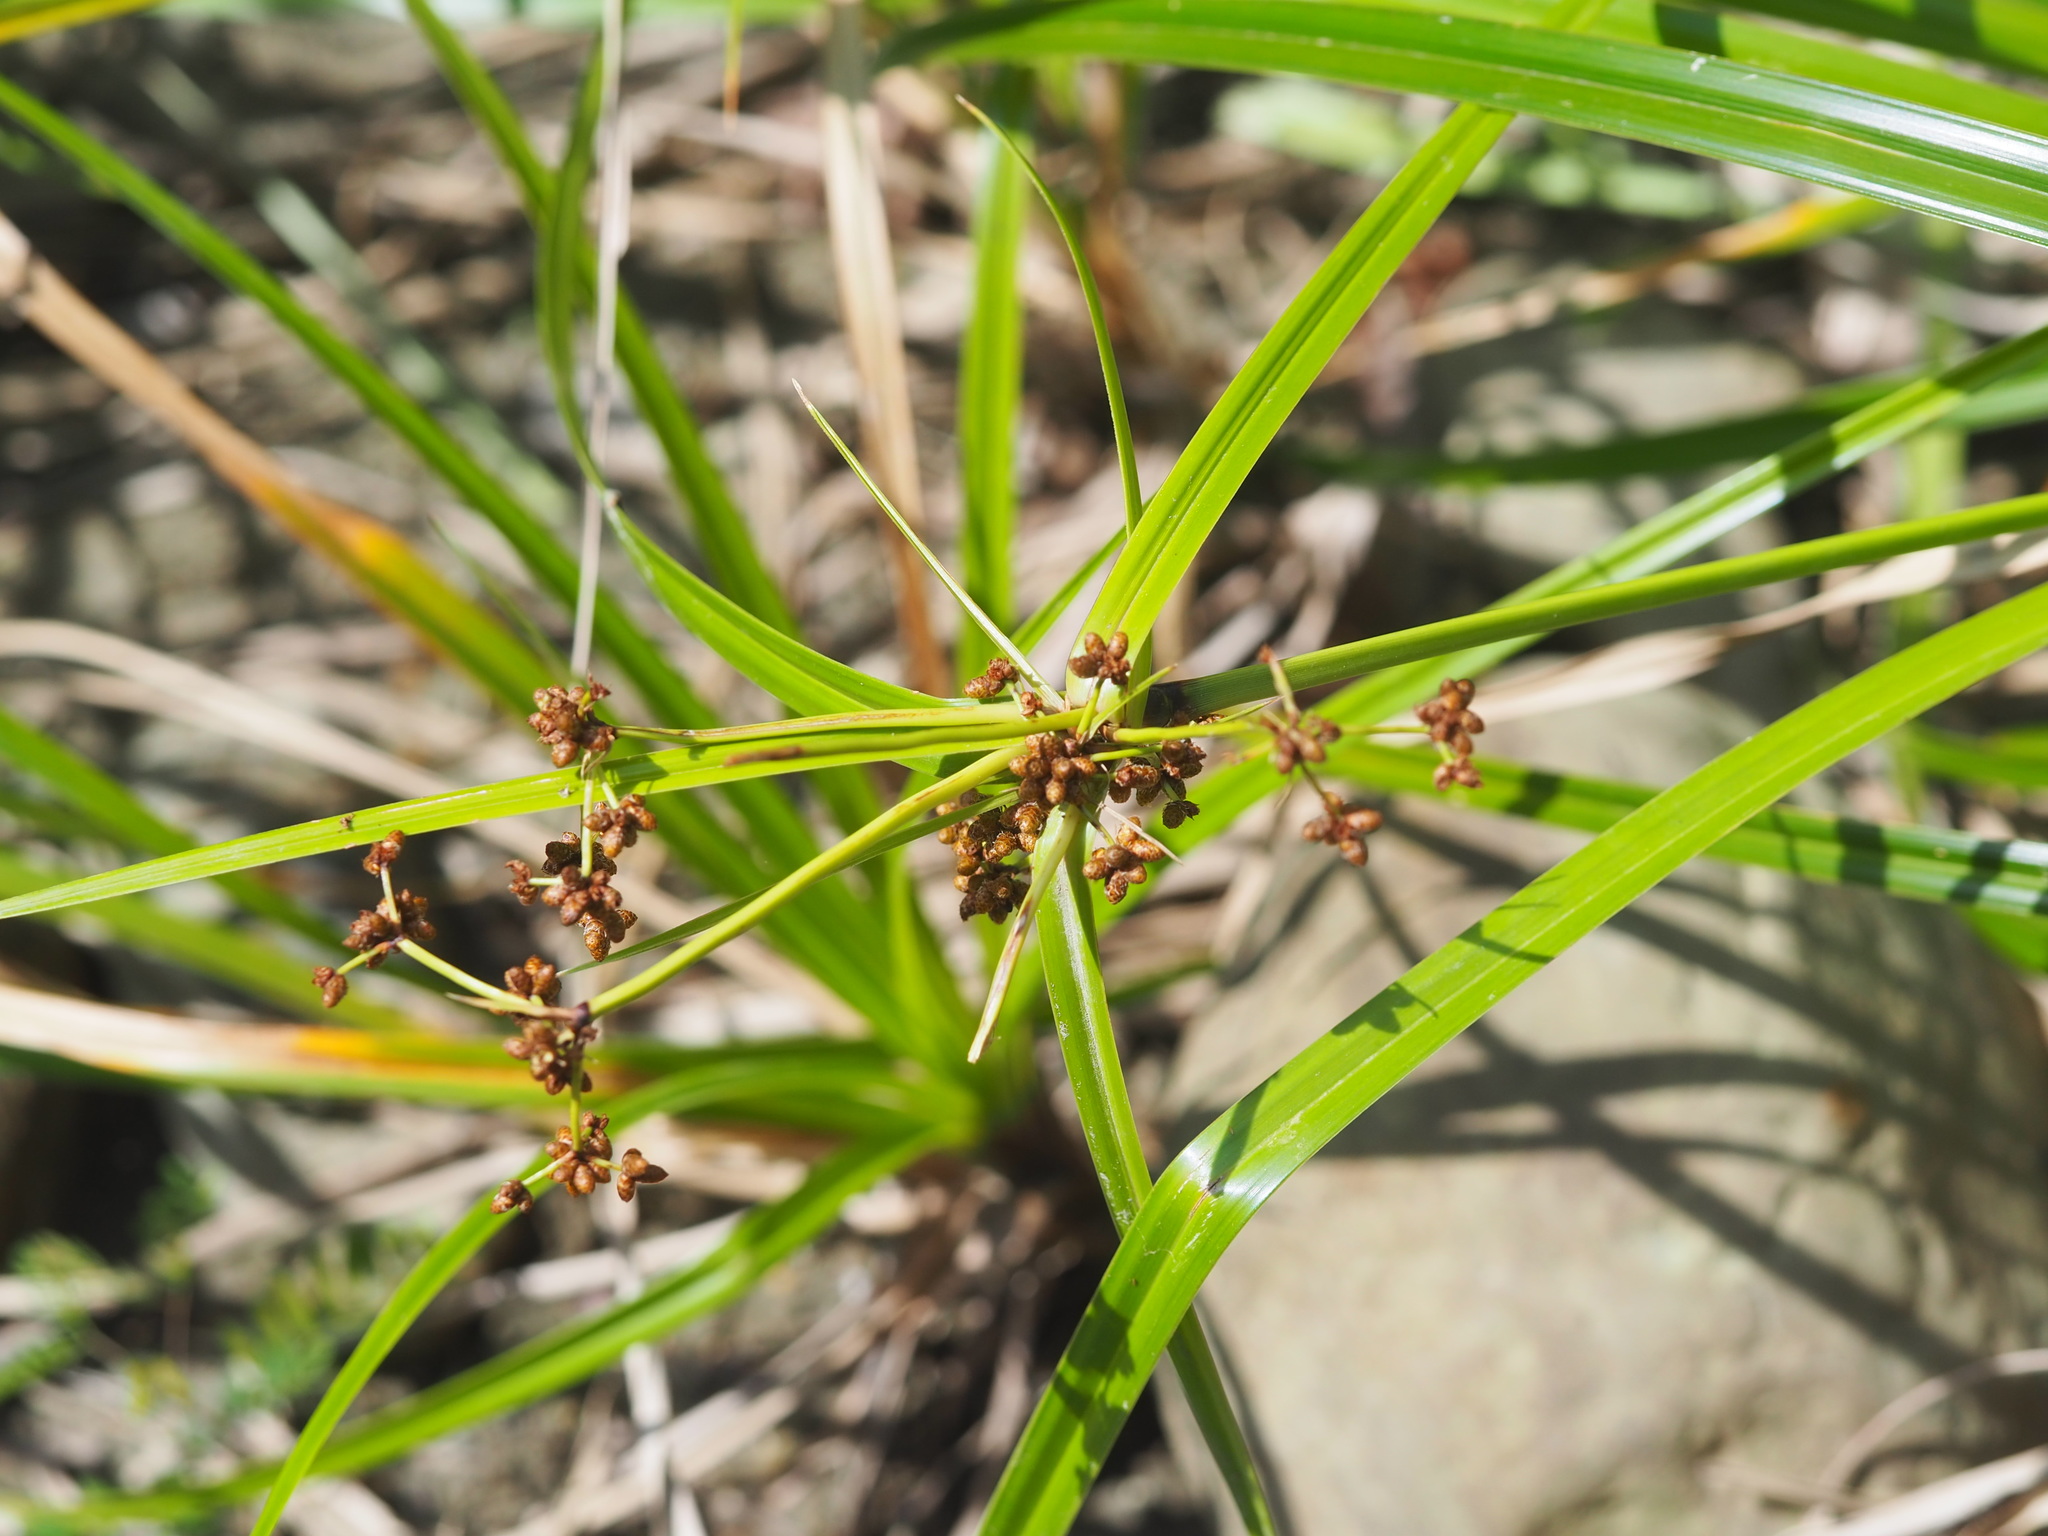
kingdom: Plantae
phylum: Tracheophyta
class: Liliopsida
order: Poales
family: Cyperaceae
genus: Scirpus
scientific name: Scirpus ternatanus
